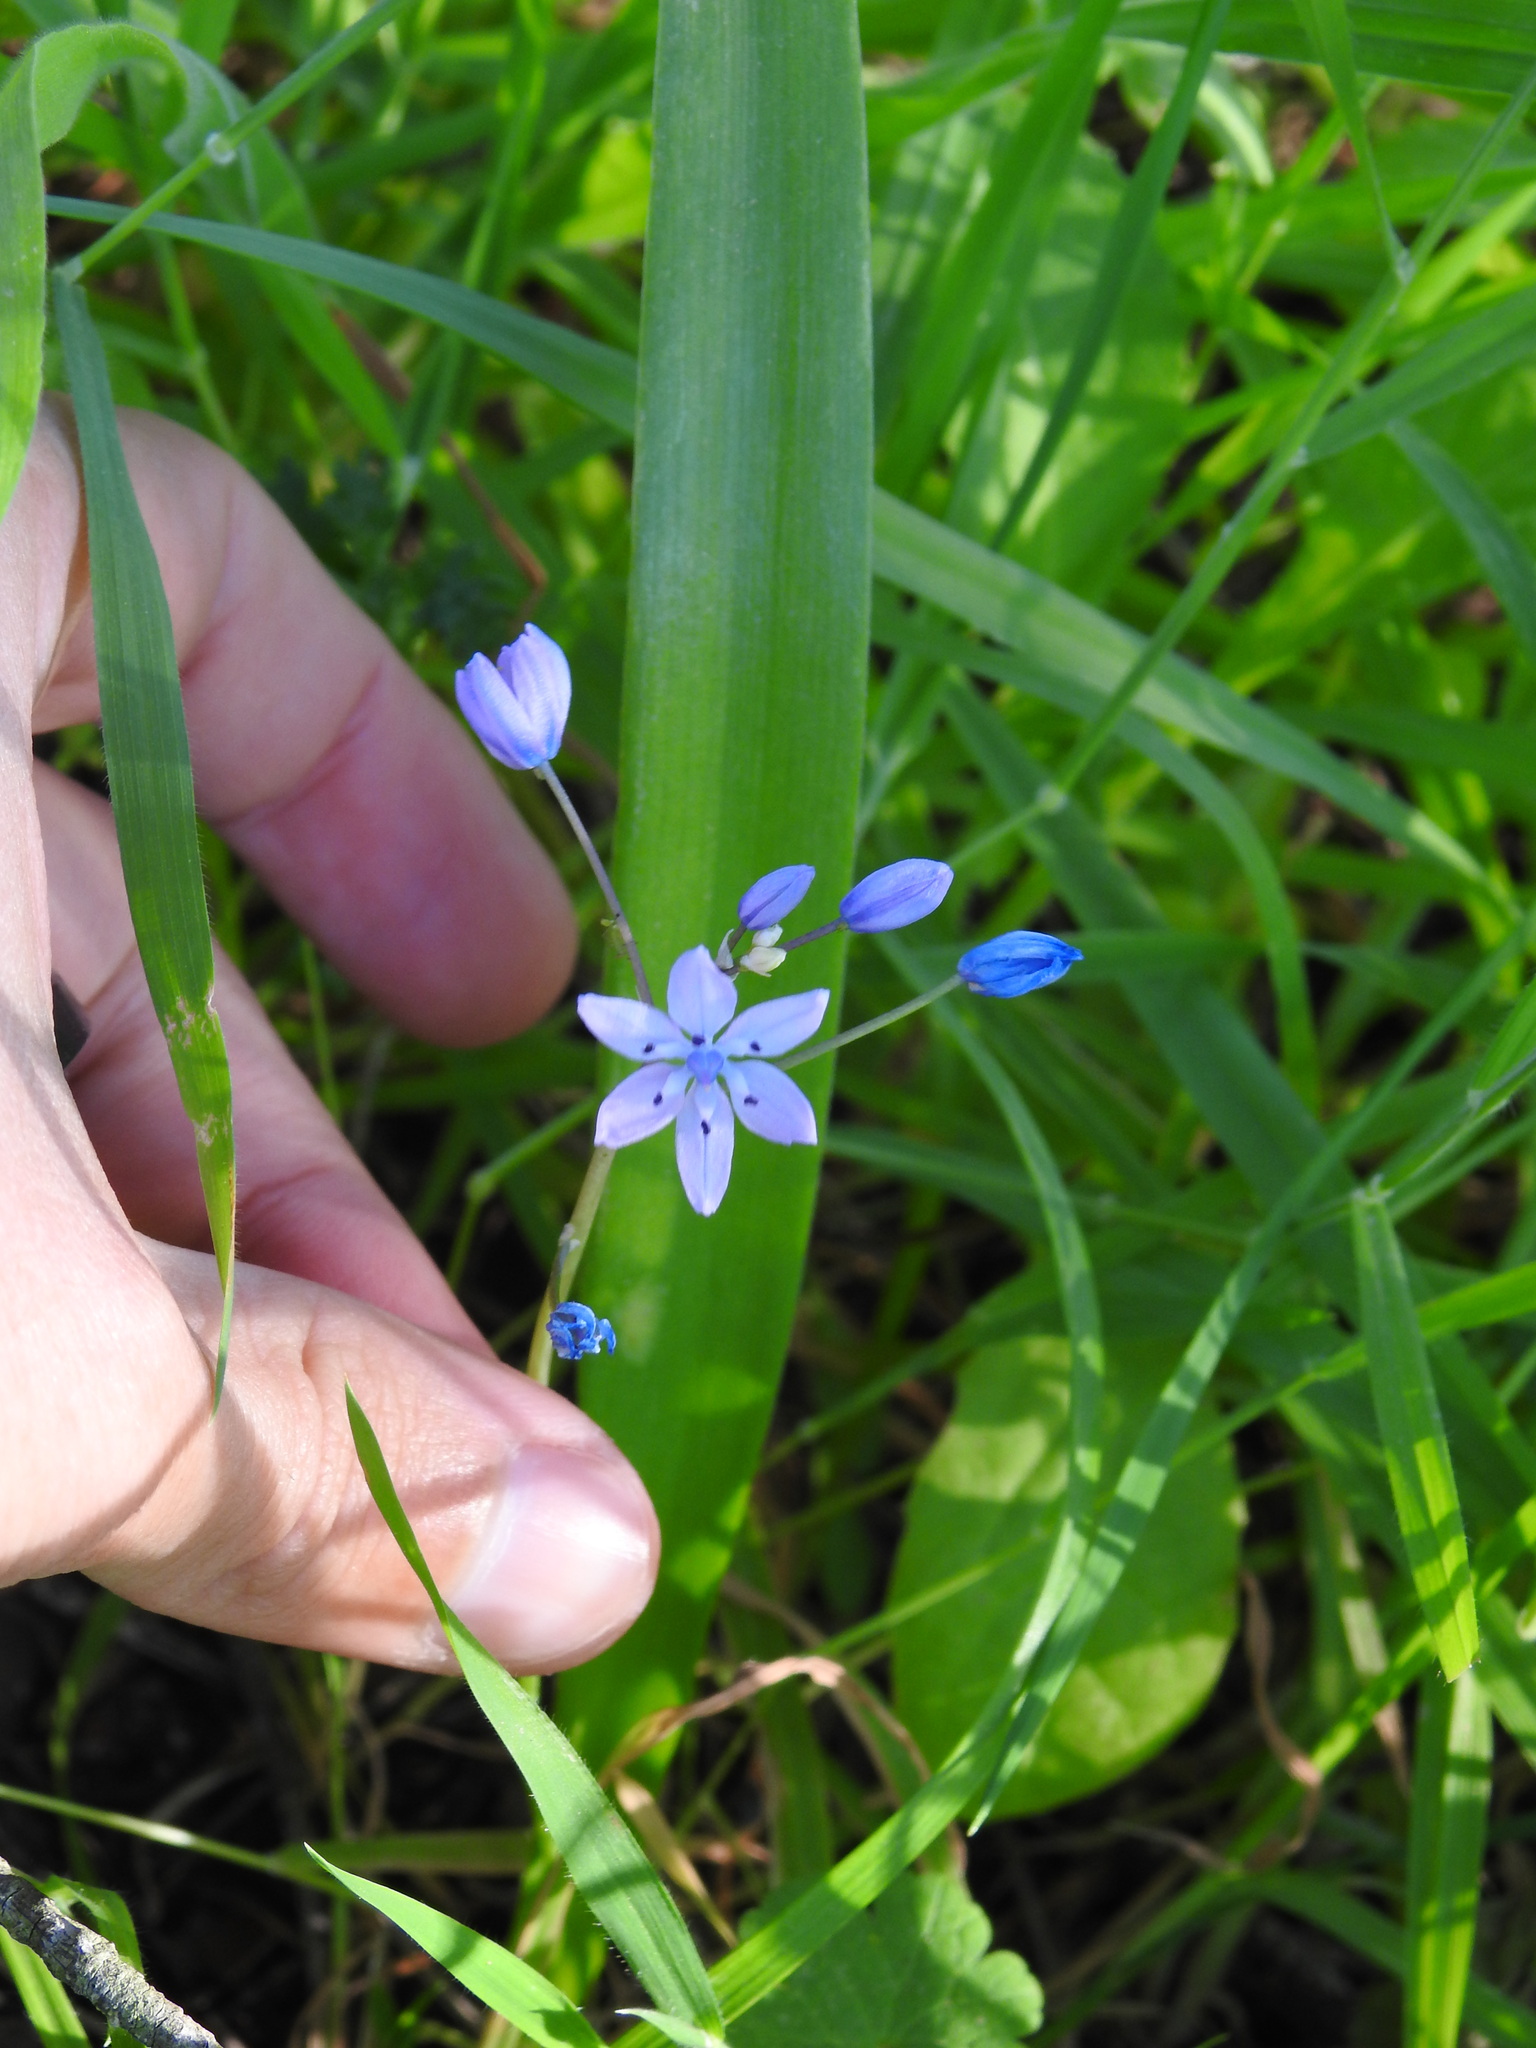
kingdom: Plantae
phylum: Tracheophyta
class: Liliopsida
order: Asparagales
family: Asparagaceae
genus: Scilla
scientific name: Scilla monophyllos
